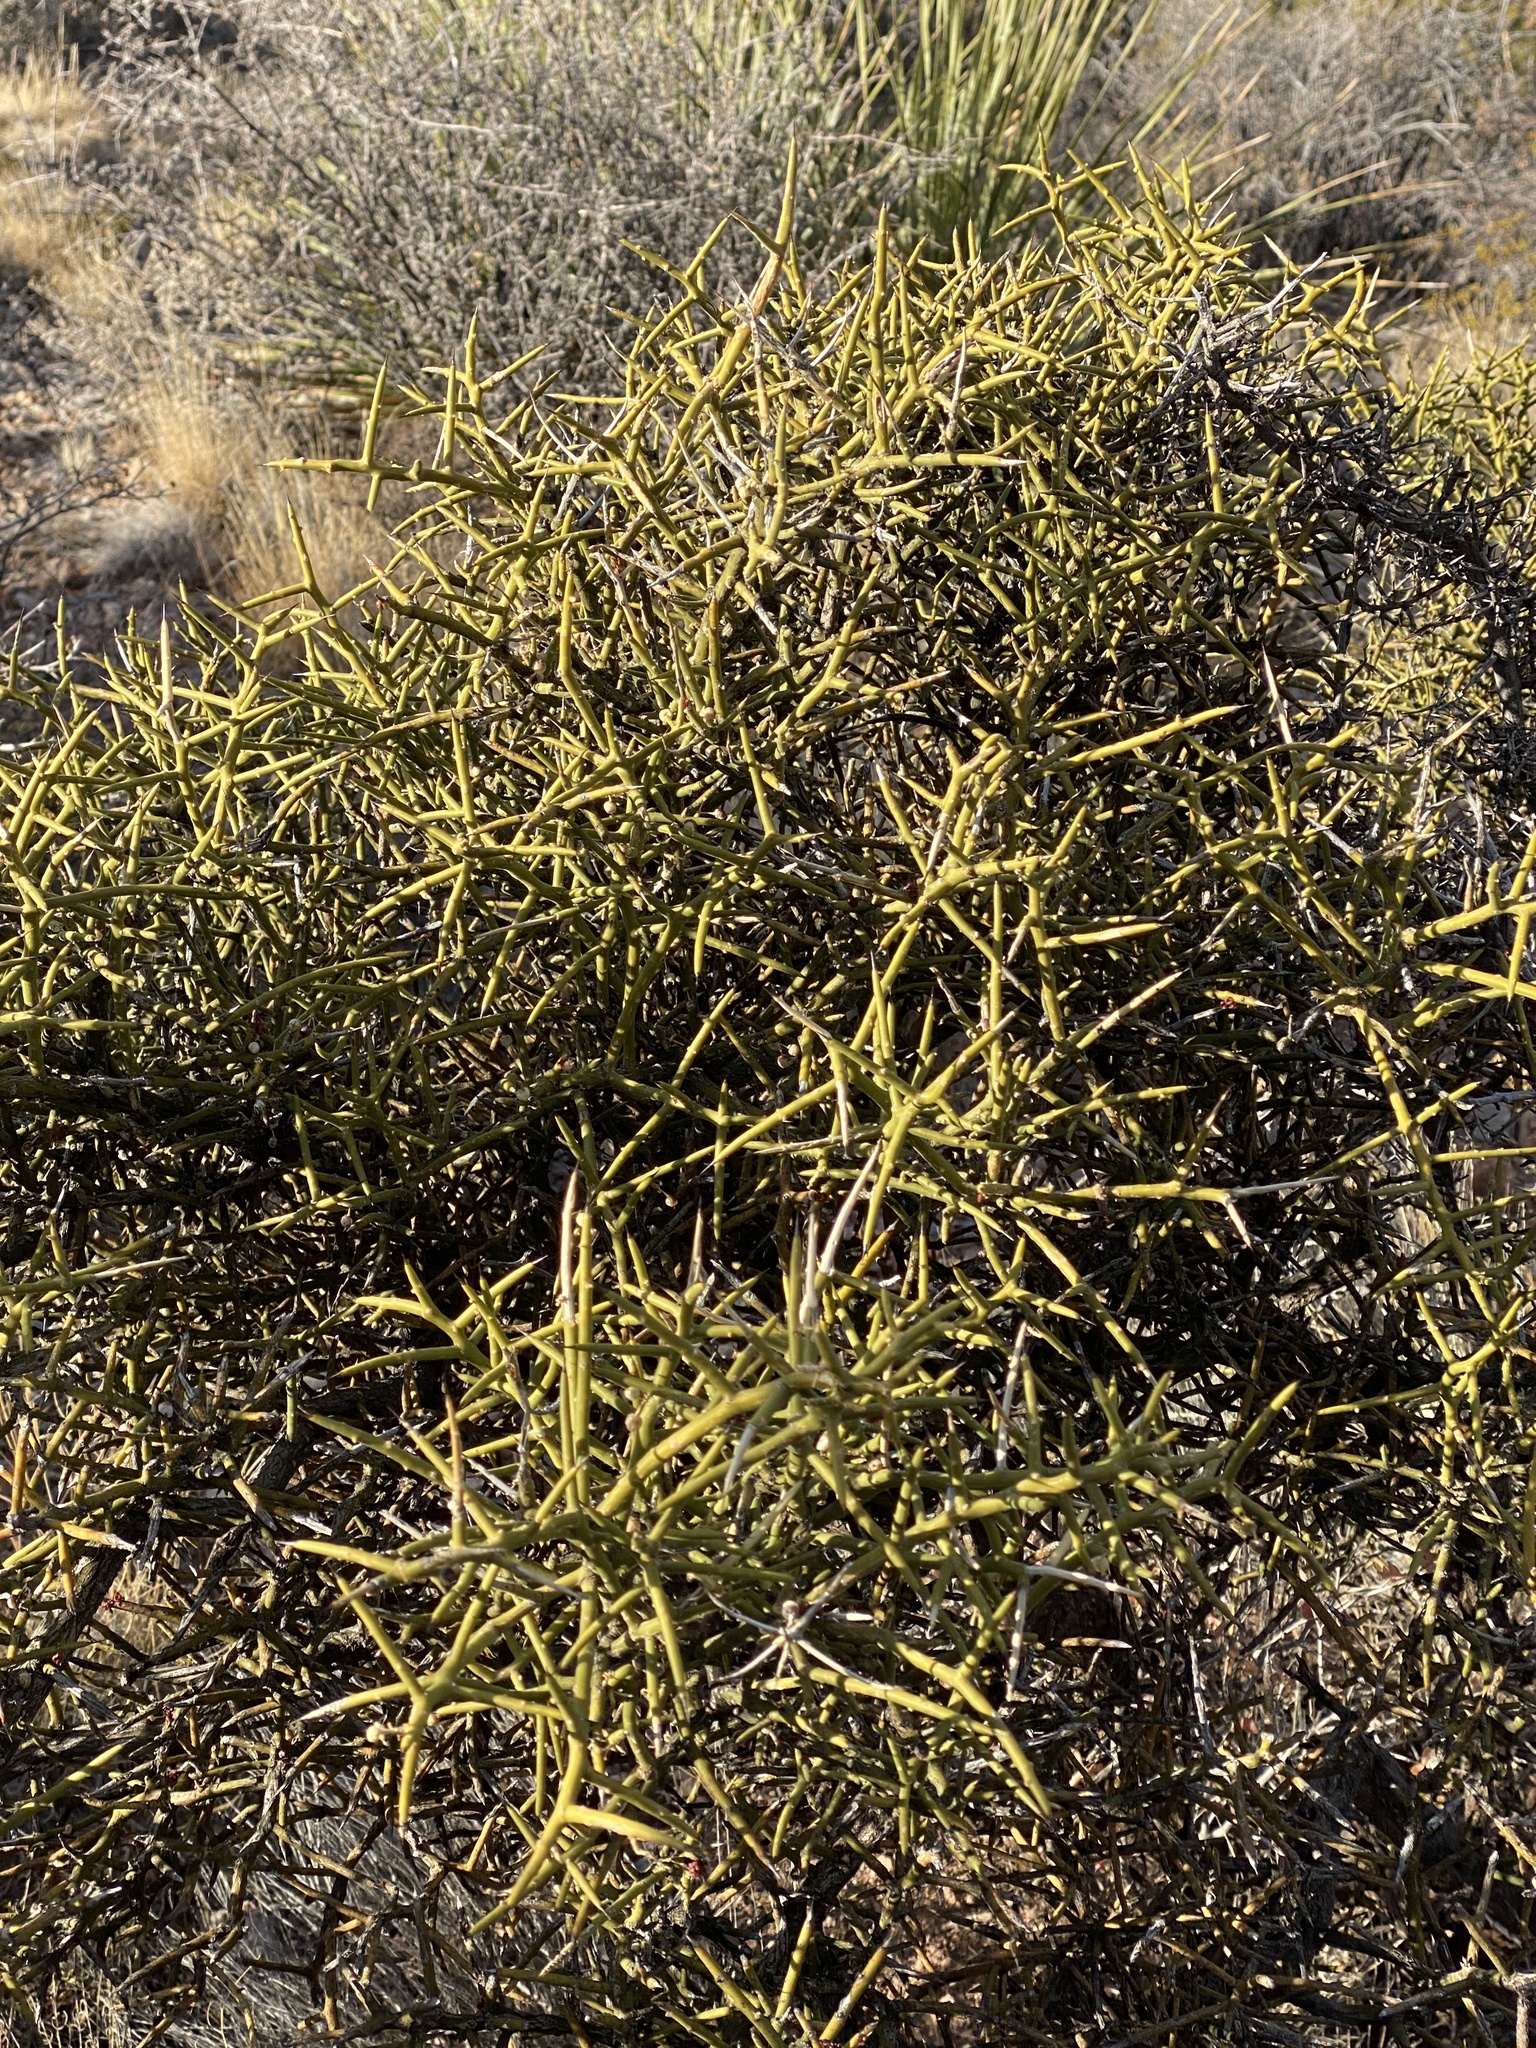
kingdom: Plantae
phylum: Tracheophyta
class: Magnoliopsida
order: Brassicales
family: Koeberliniaceae
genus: Koeberlinia
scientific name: Koeberlinia spinosa
